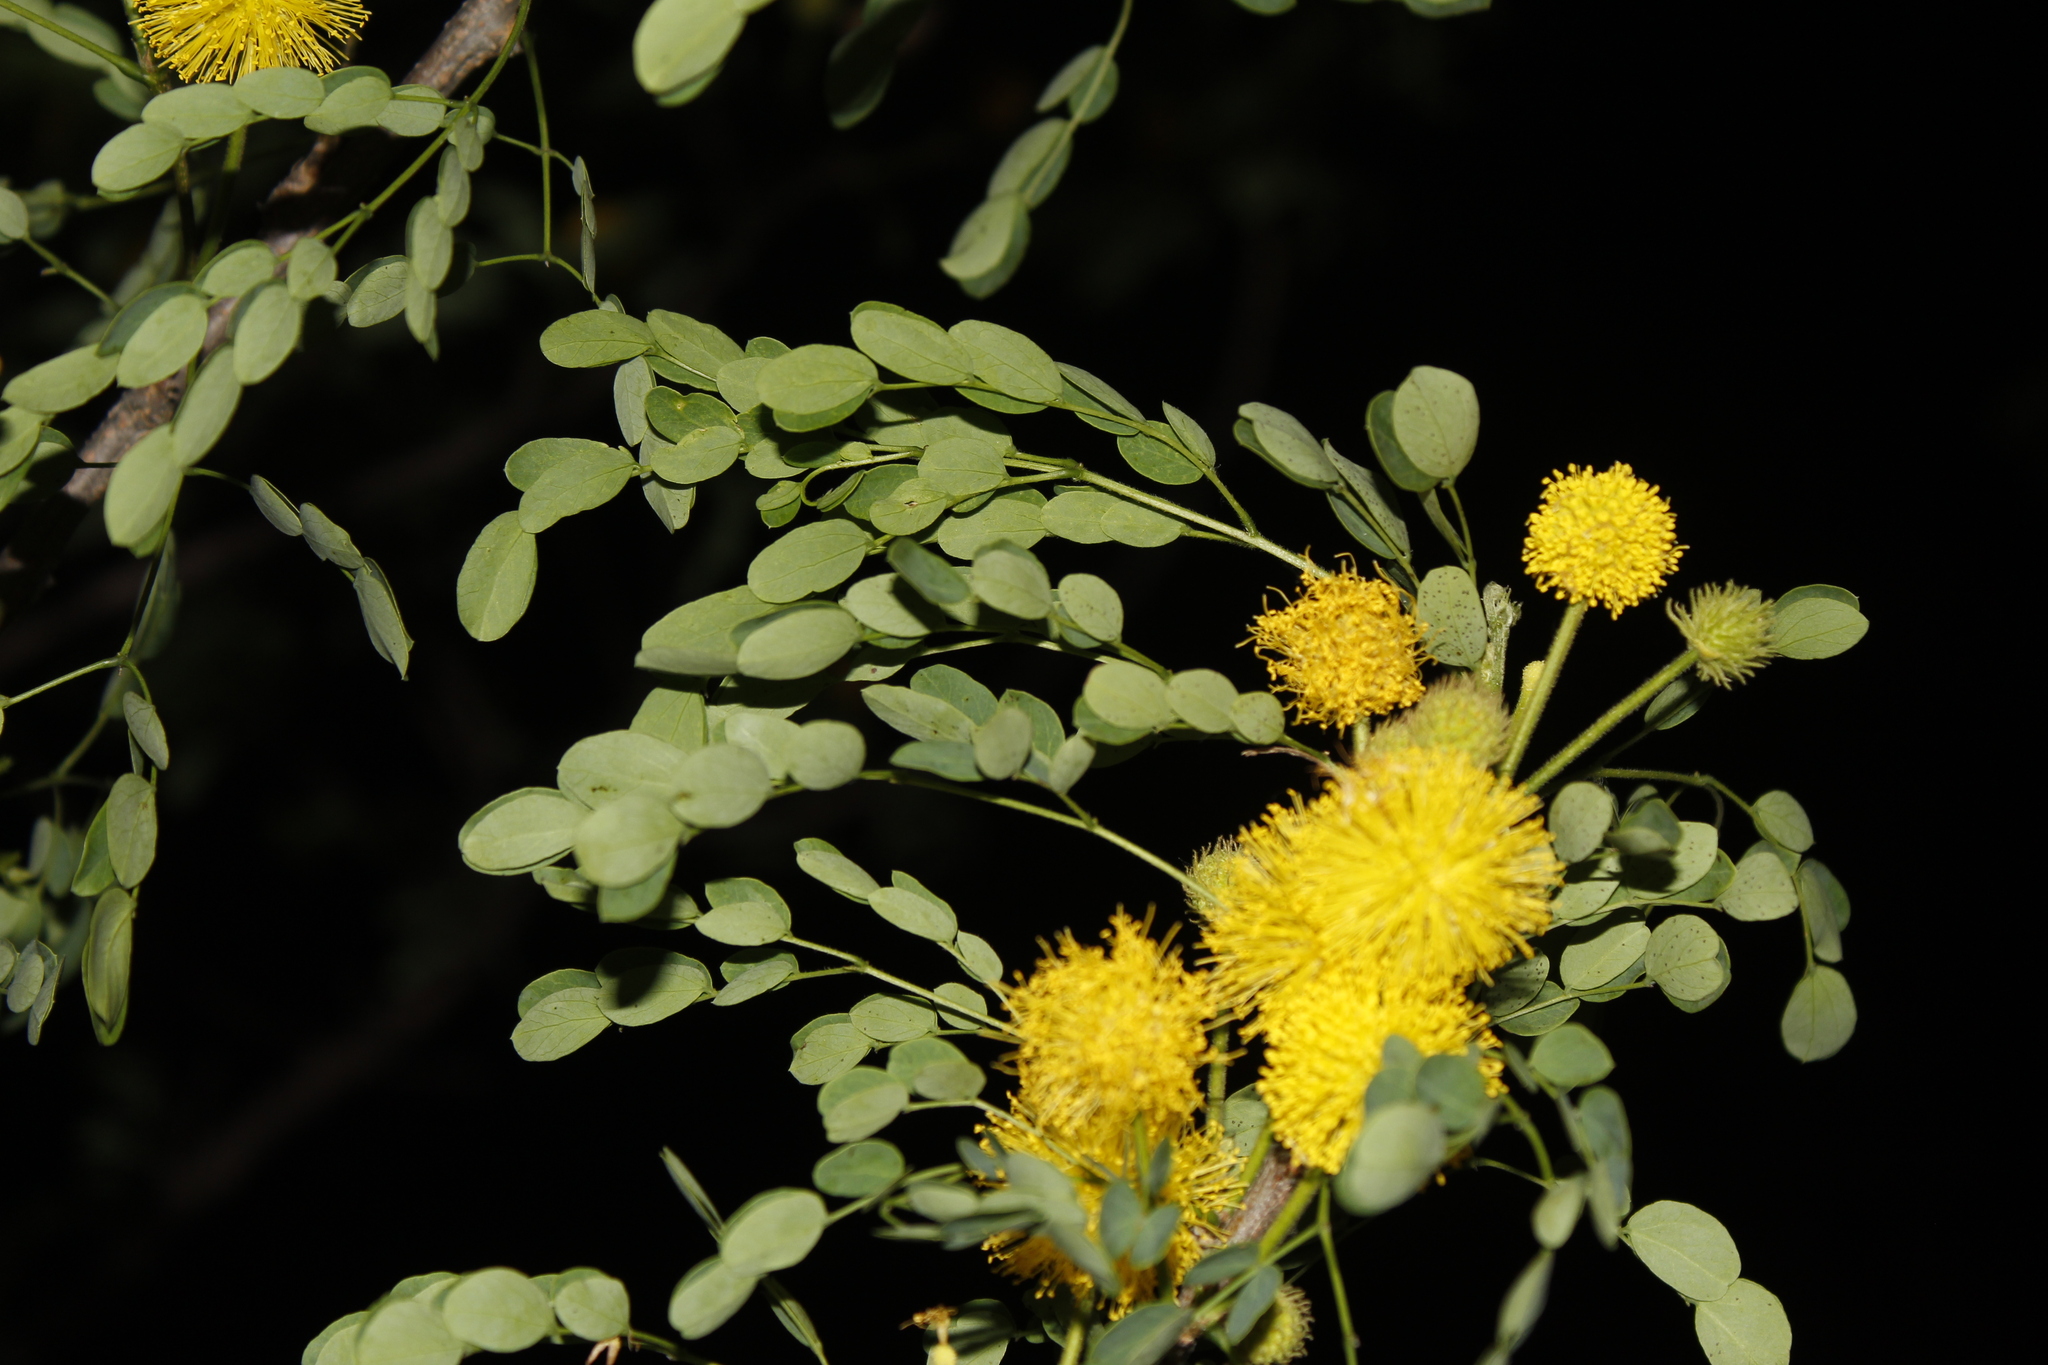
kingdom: Plantae
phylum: Tracheophyta
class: Magnoliopsida
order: Fabales
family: Fabaceae
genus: Leucaena
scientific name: Leucaena retusa
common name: Littleleaf leadtree
